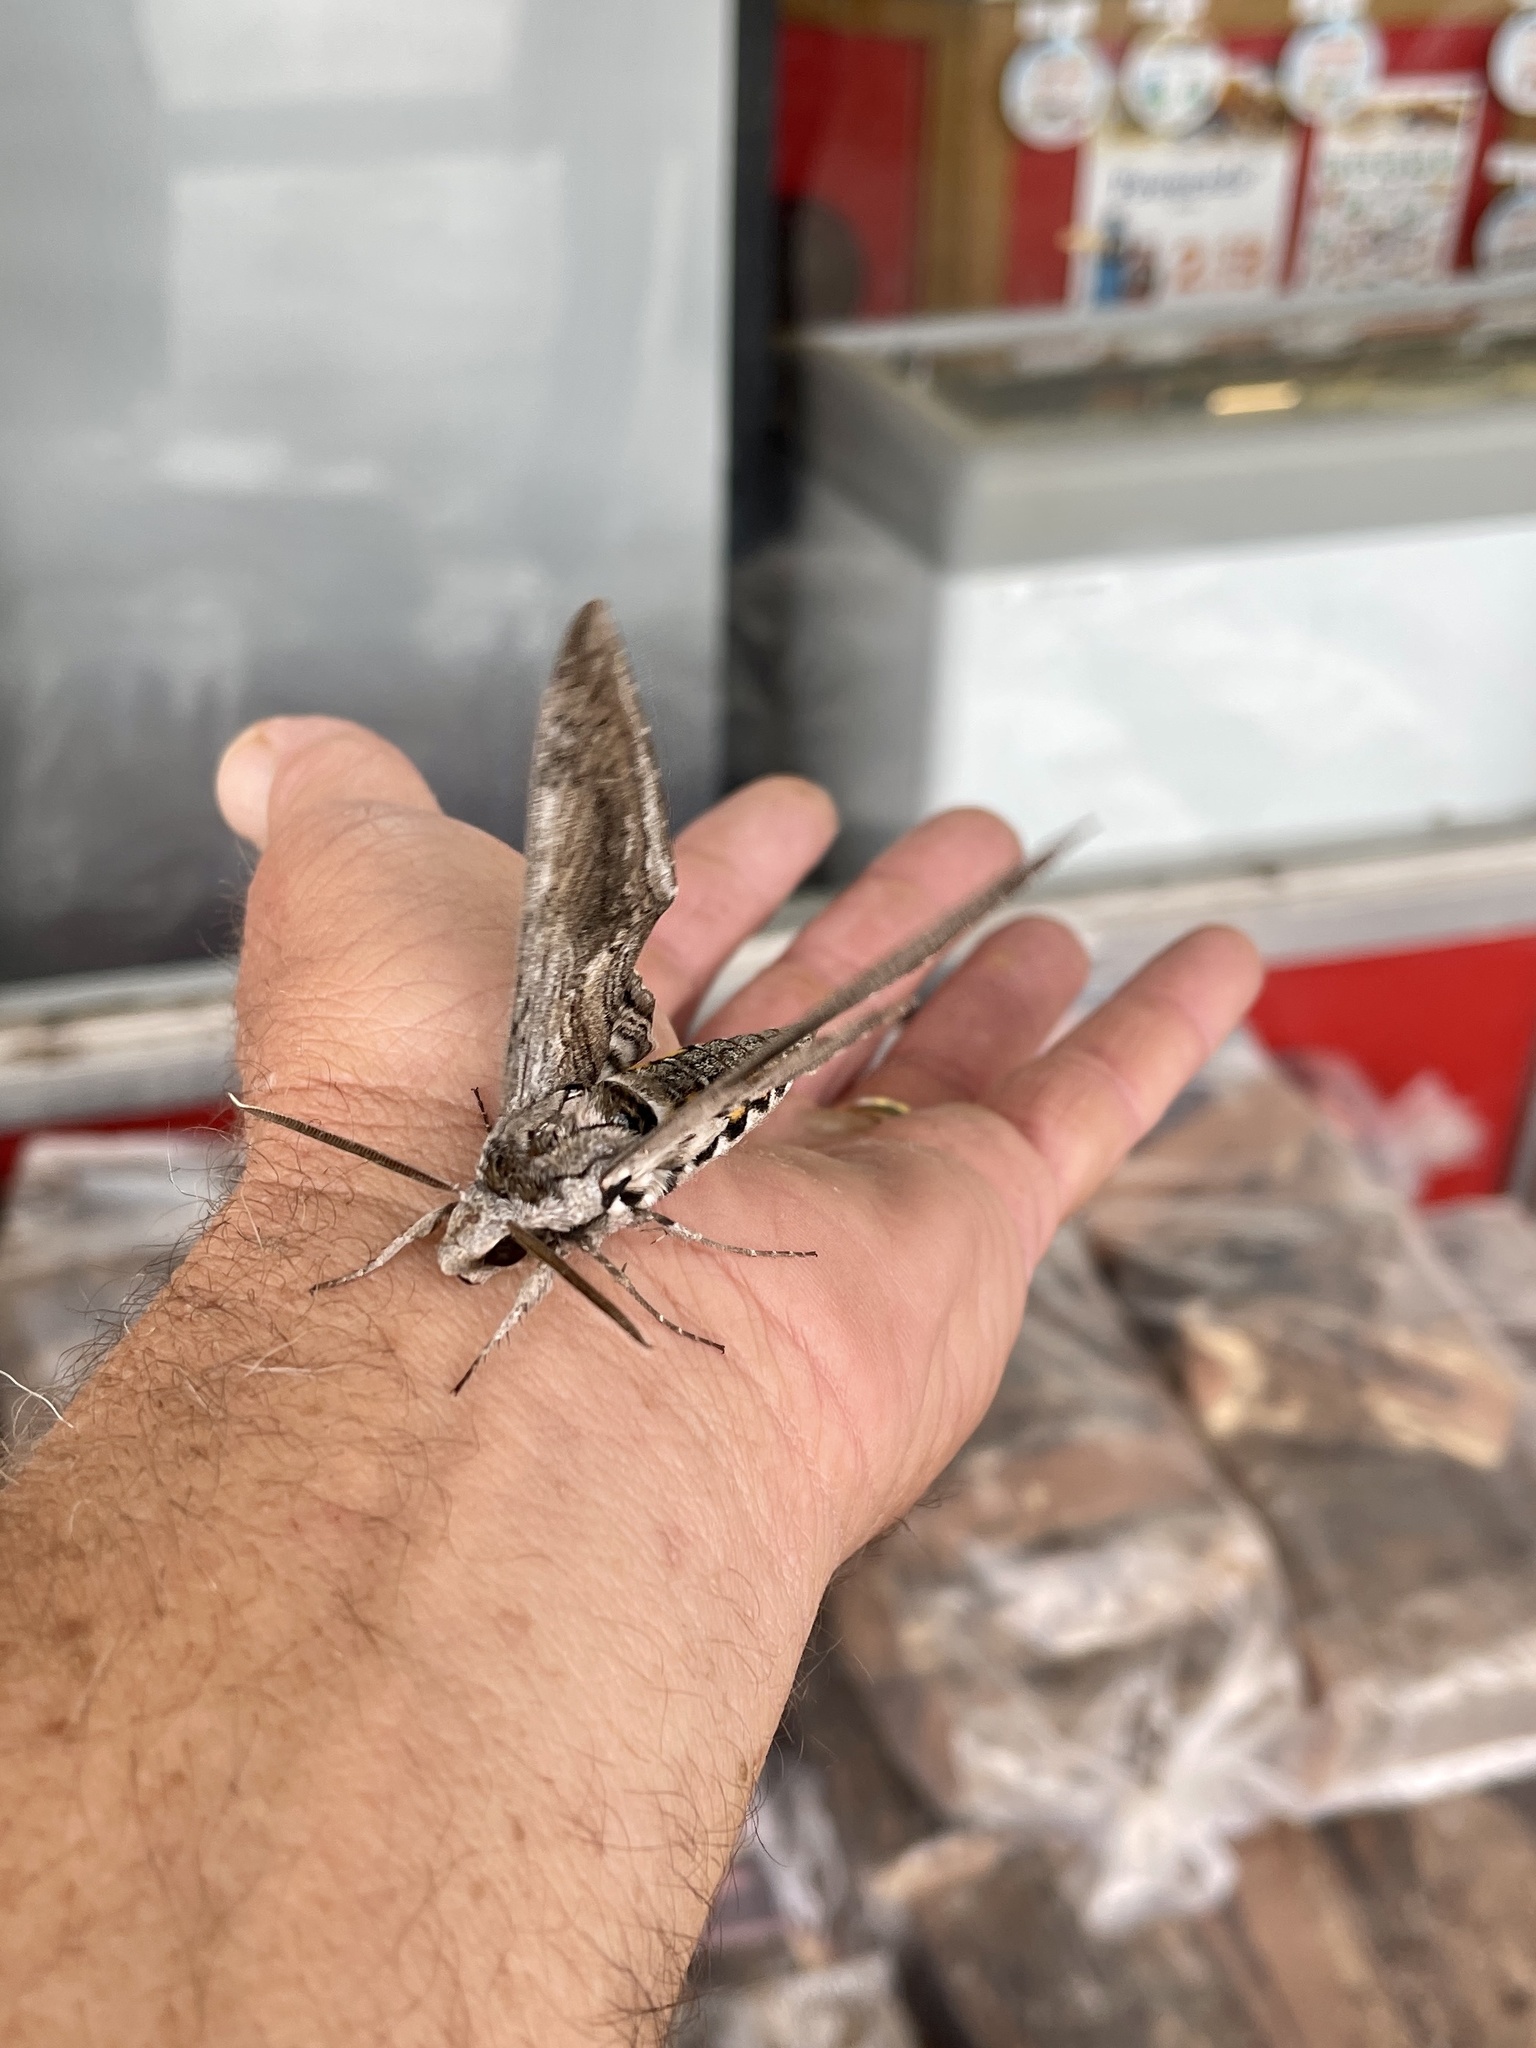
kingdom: Animalia
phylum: Arthropoda
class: Insecta
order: Lepidoptera
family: Sphingidae
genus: Manduca
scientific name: Manduca quinquemaculatus
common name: Five-spotted hawk-moth
